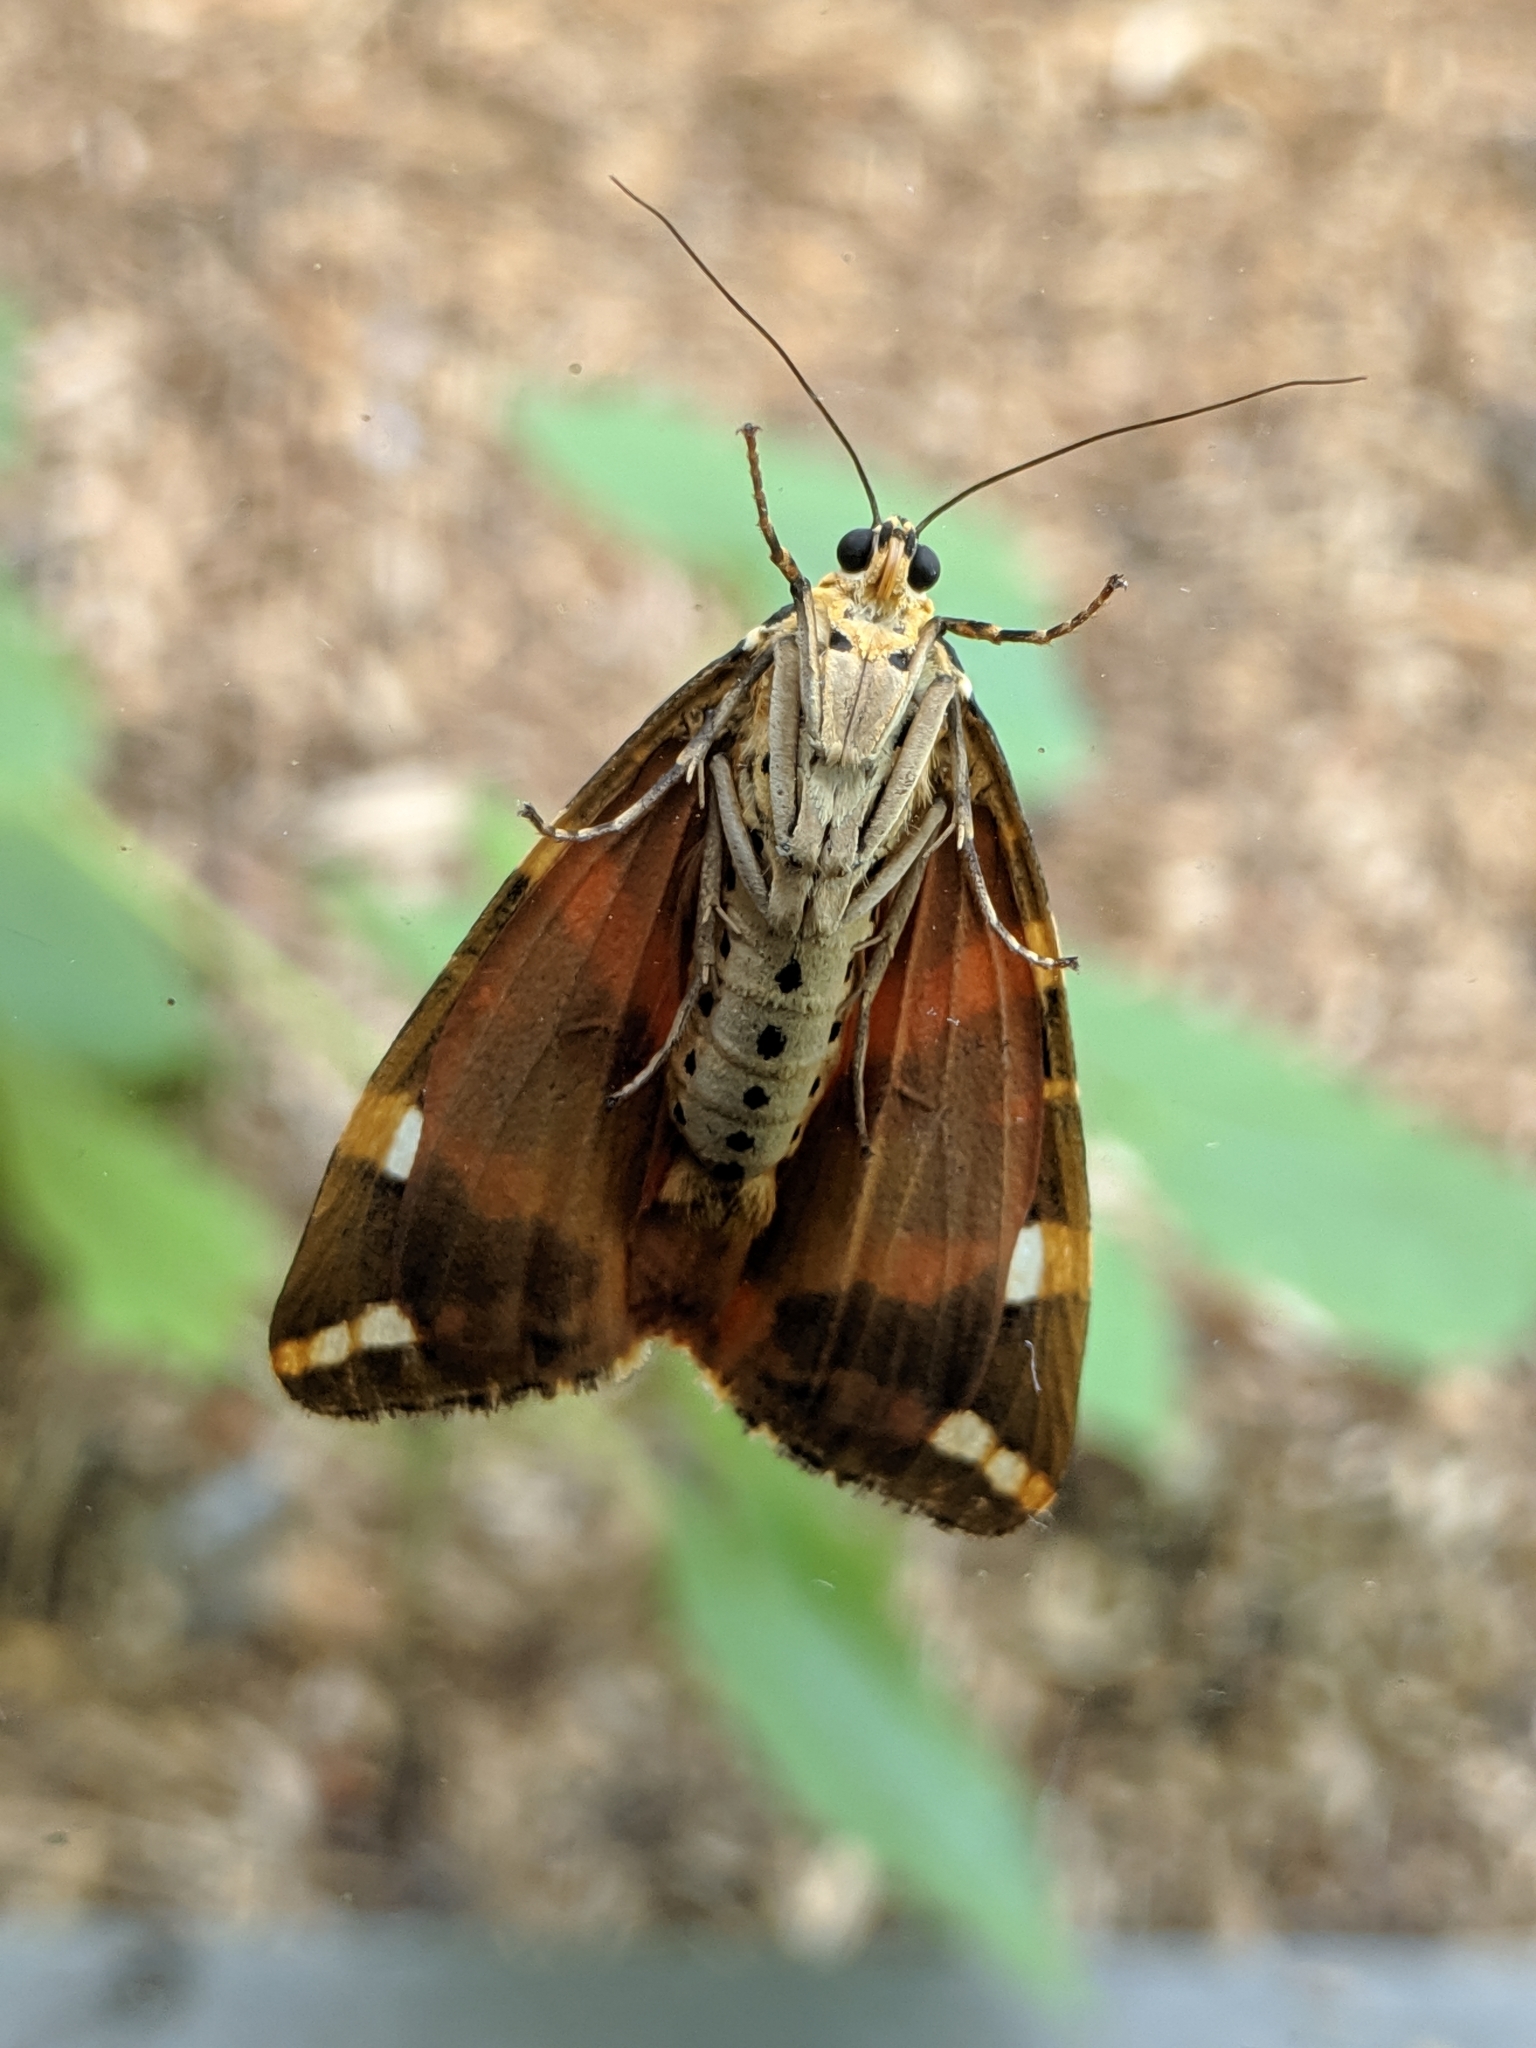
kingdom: Animalia
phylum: Arthropoda
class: Insecta
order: Lepidoptera
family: Erebidae
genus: Euplagia
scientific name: Euplagia quadripunctaria
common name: Jersey tiger
